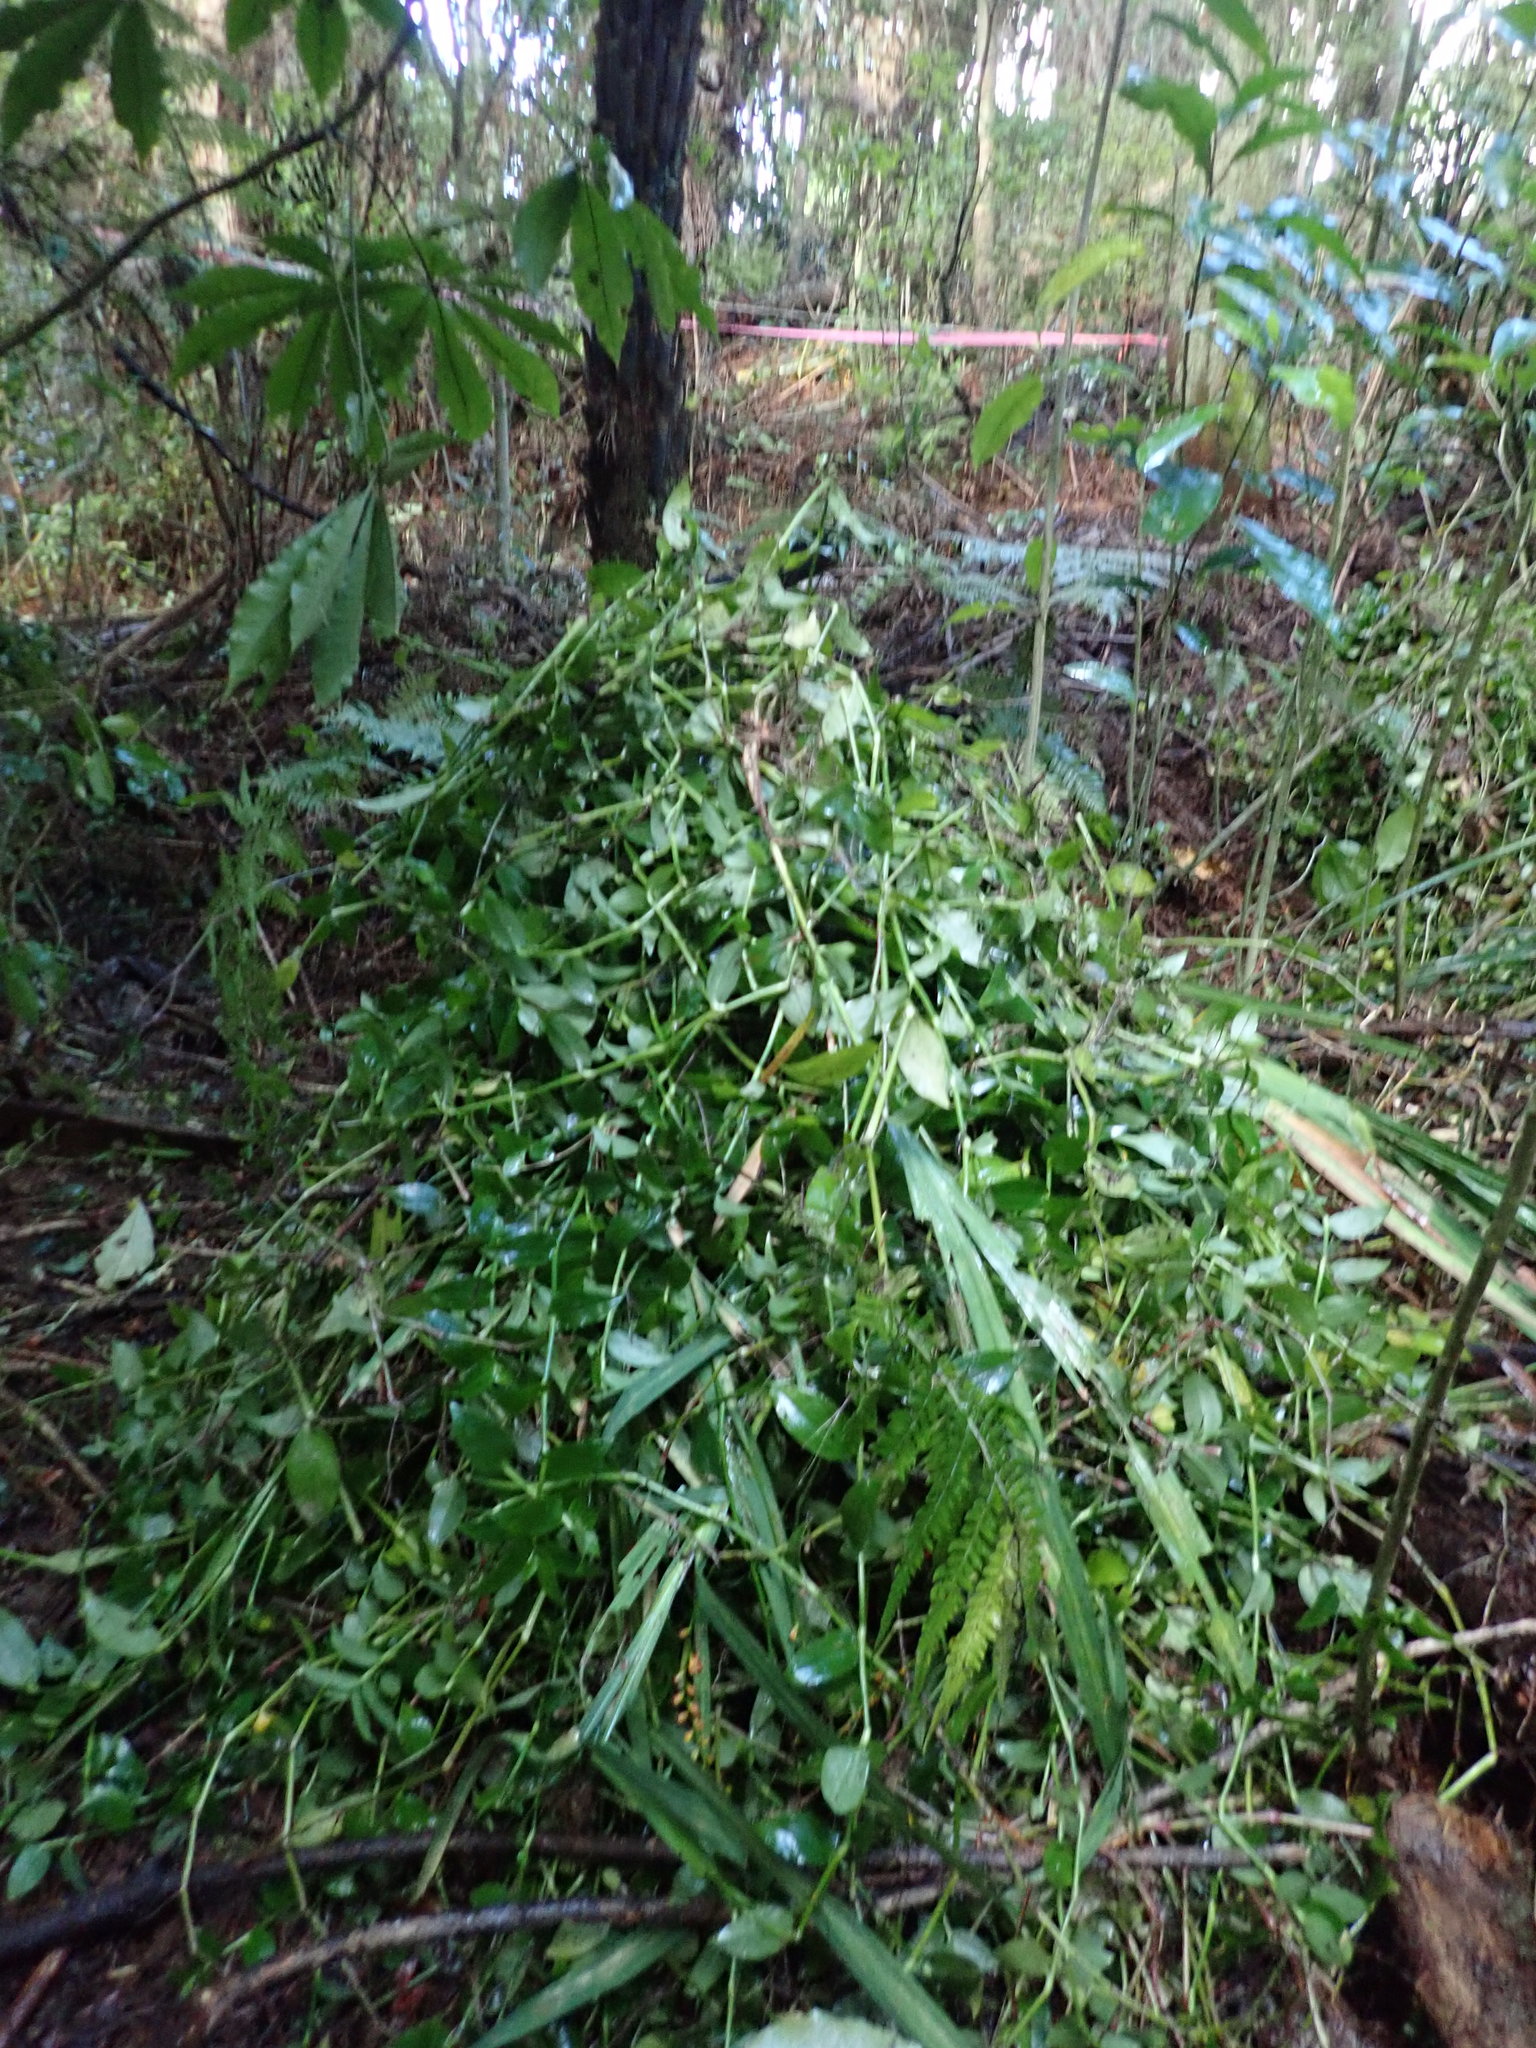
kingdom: Plantae
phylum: Tracheophyta
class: Liliopsida
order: Commelinales
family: Commelinaceae
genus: Tradescantia
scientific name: Tradescantia fluminensis
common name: Wandering-jew
